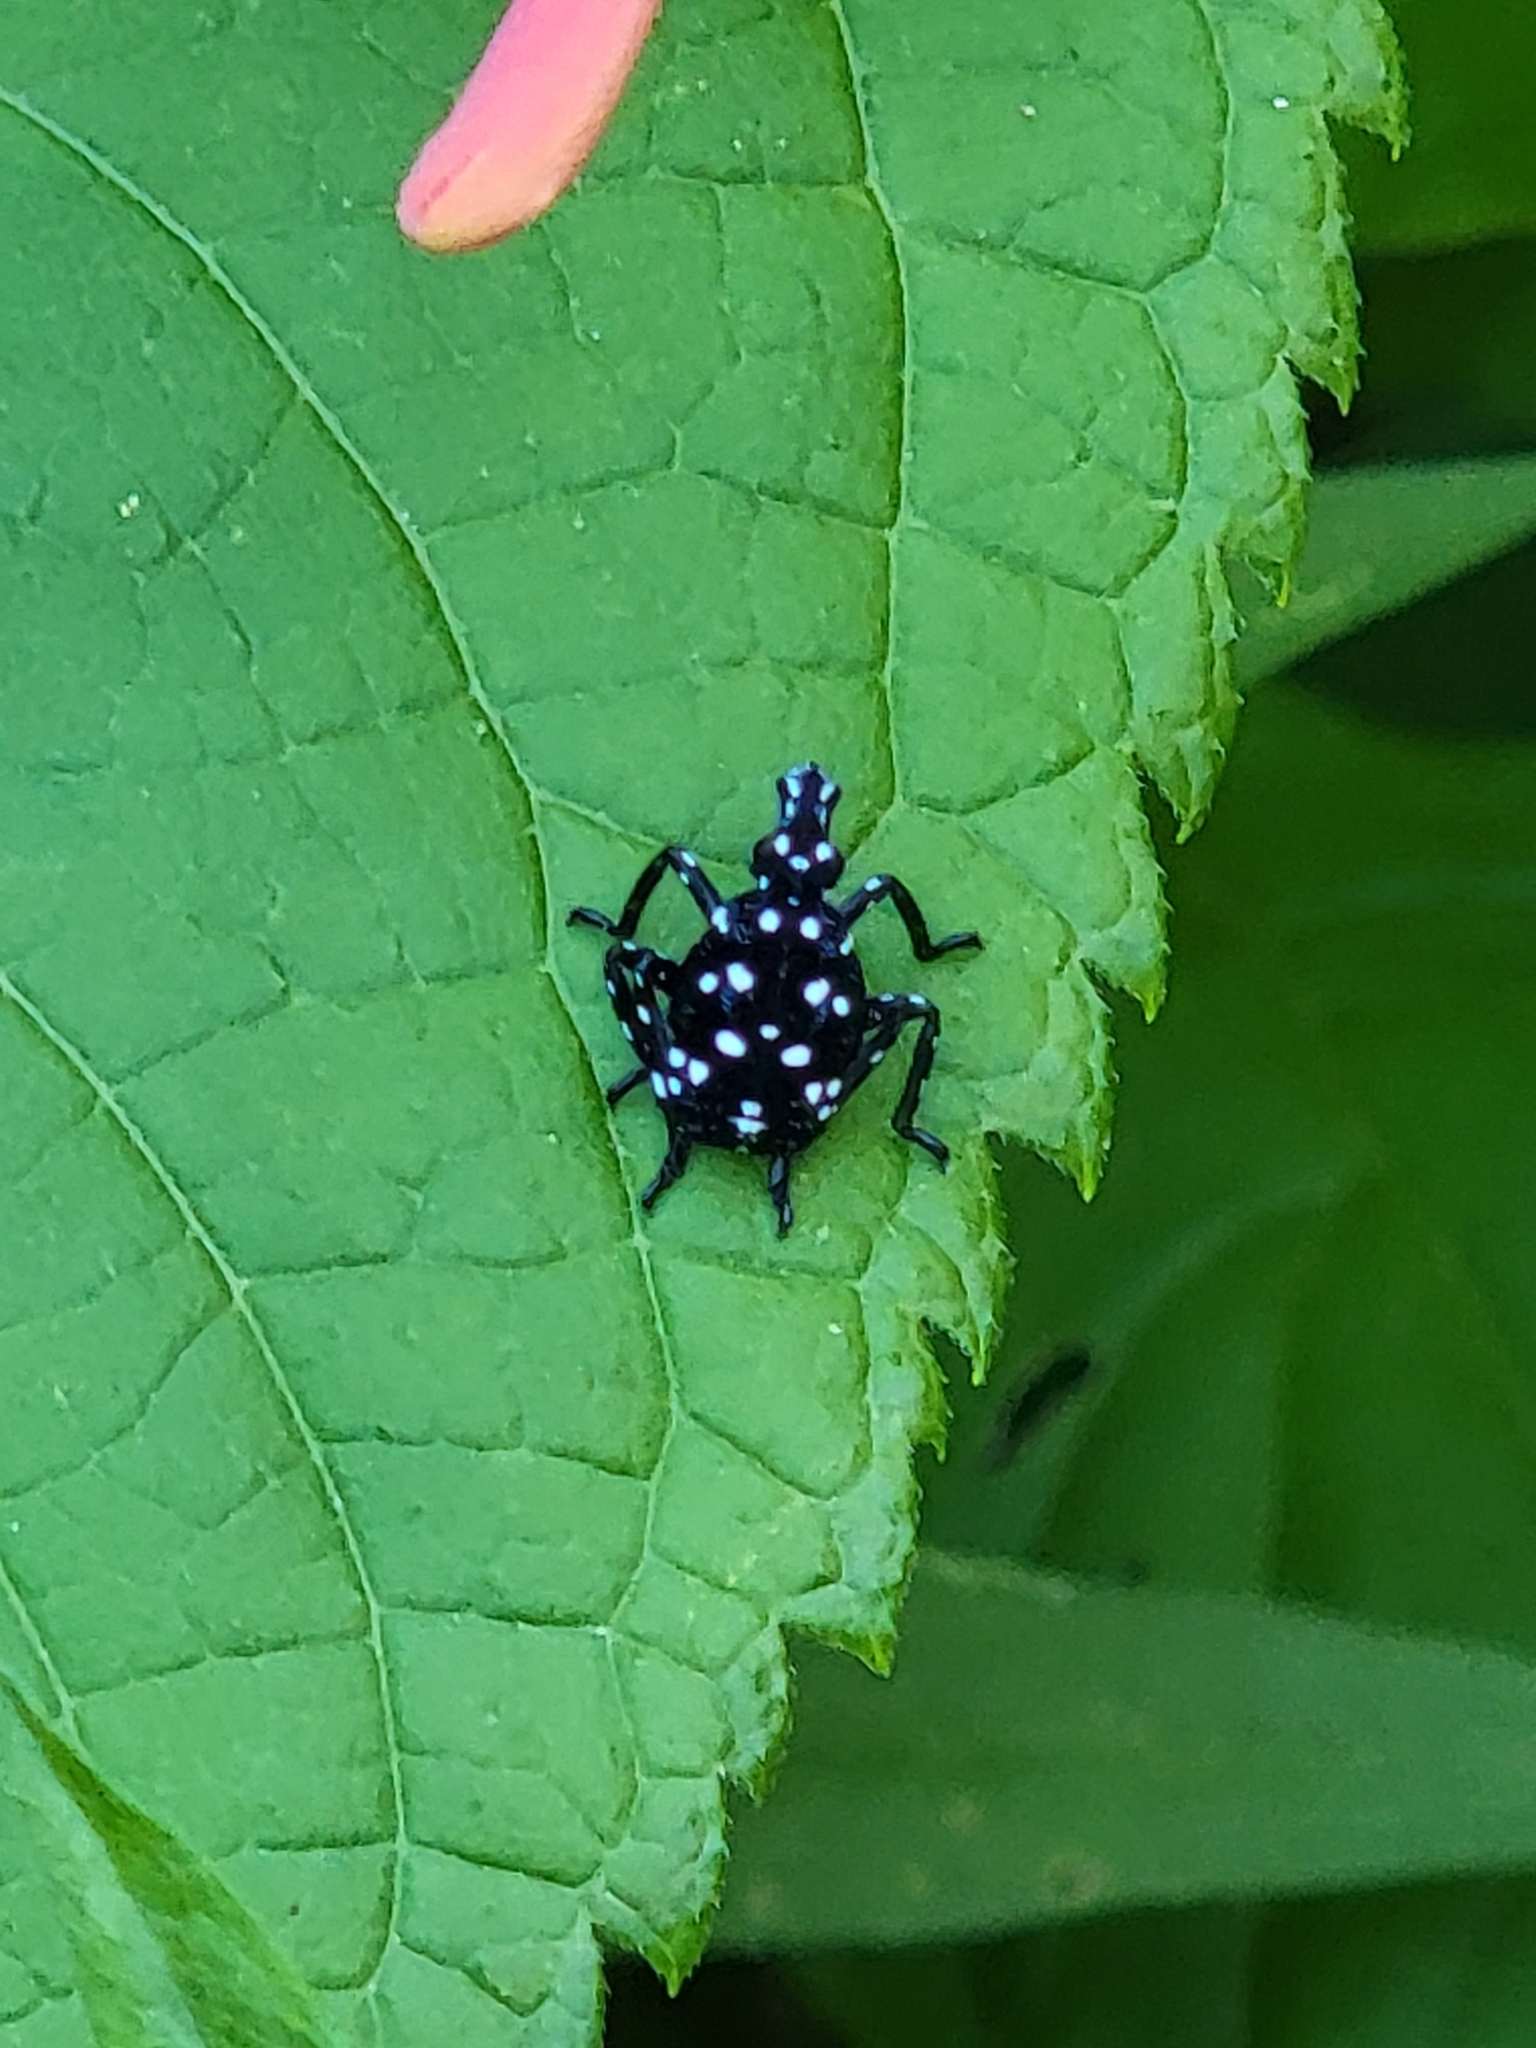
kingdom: Animalia
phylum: Arthropoda
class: Insecta
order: Hemiptera
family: Fulgoridae
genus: Lycorma
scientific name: Lycorma delicatula
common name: Spotted lanternfly
